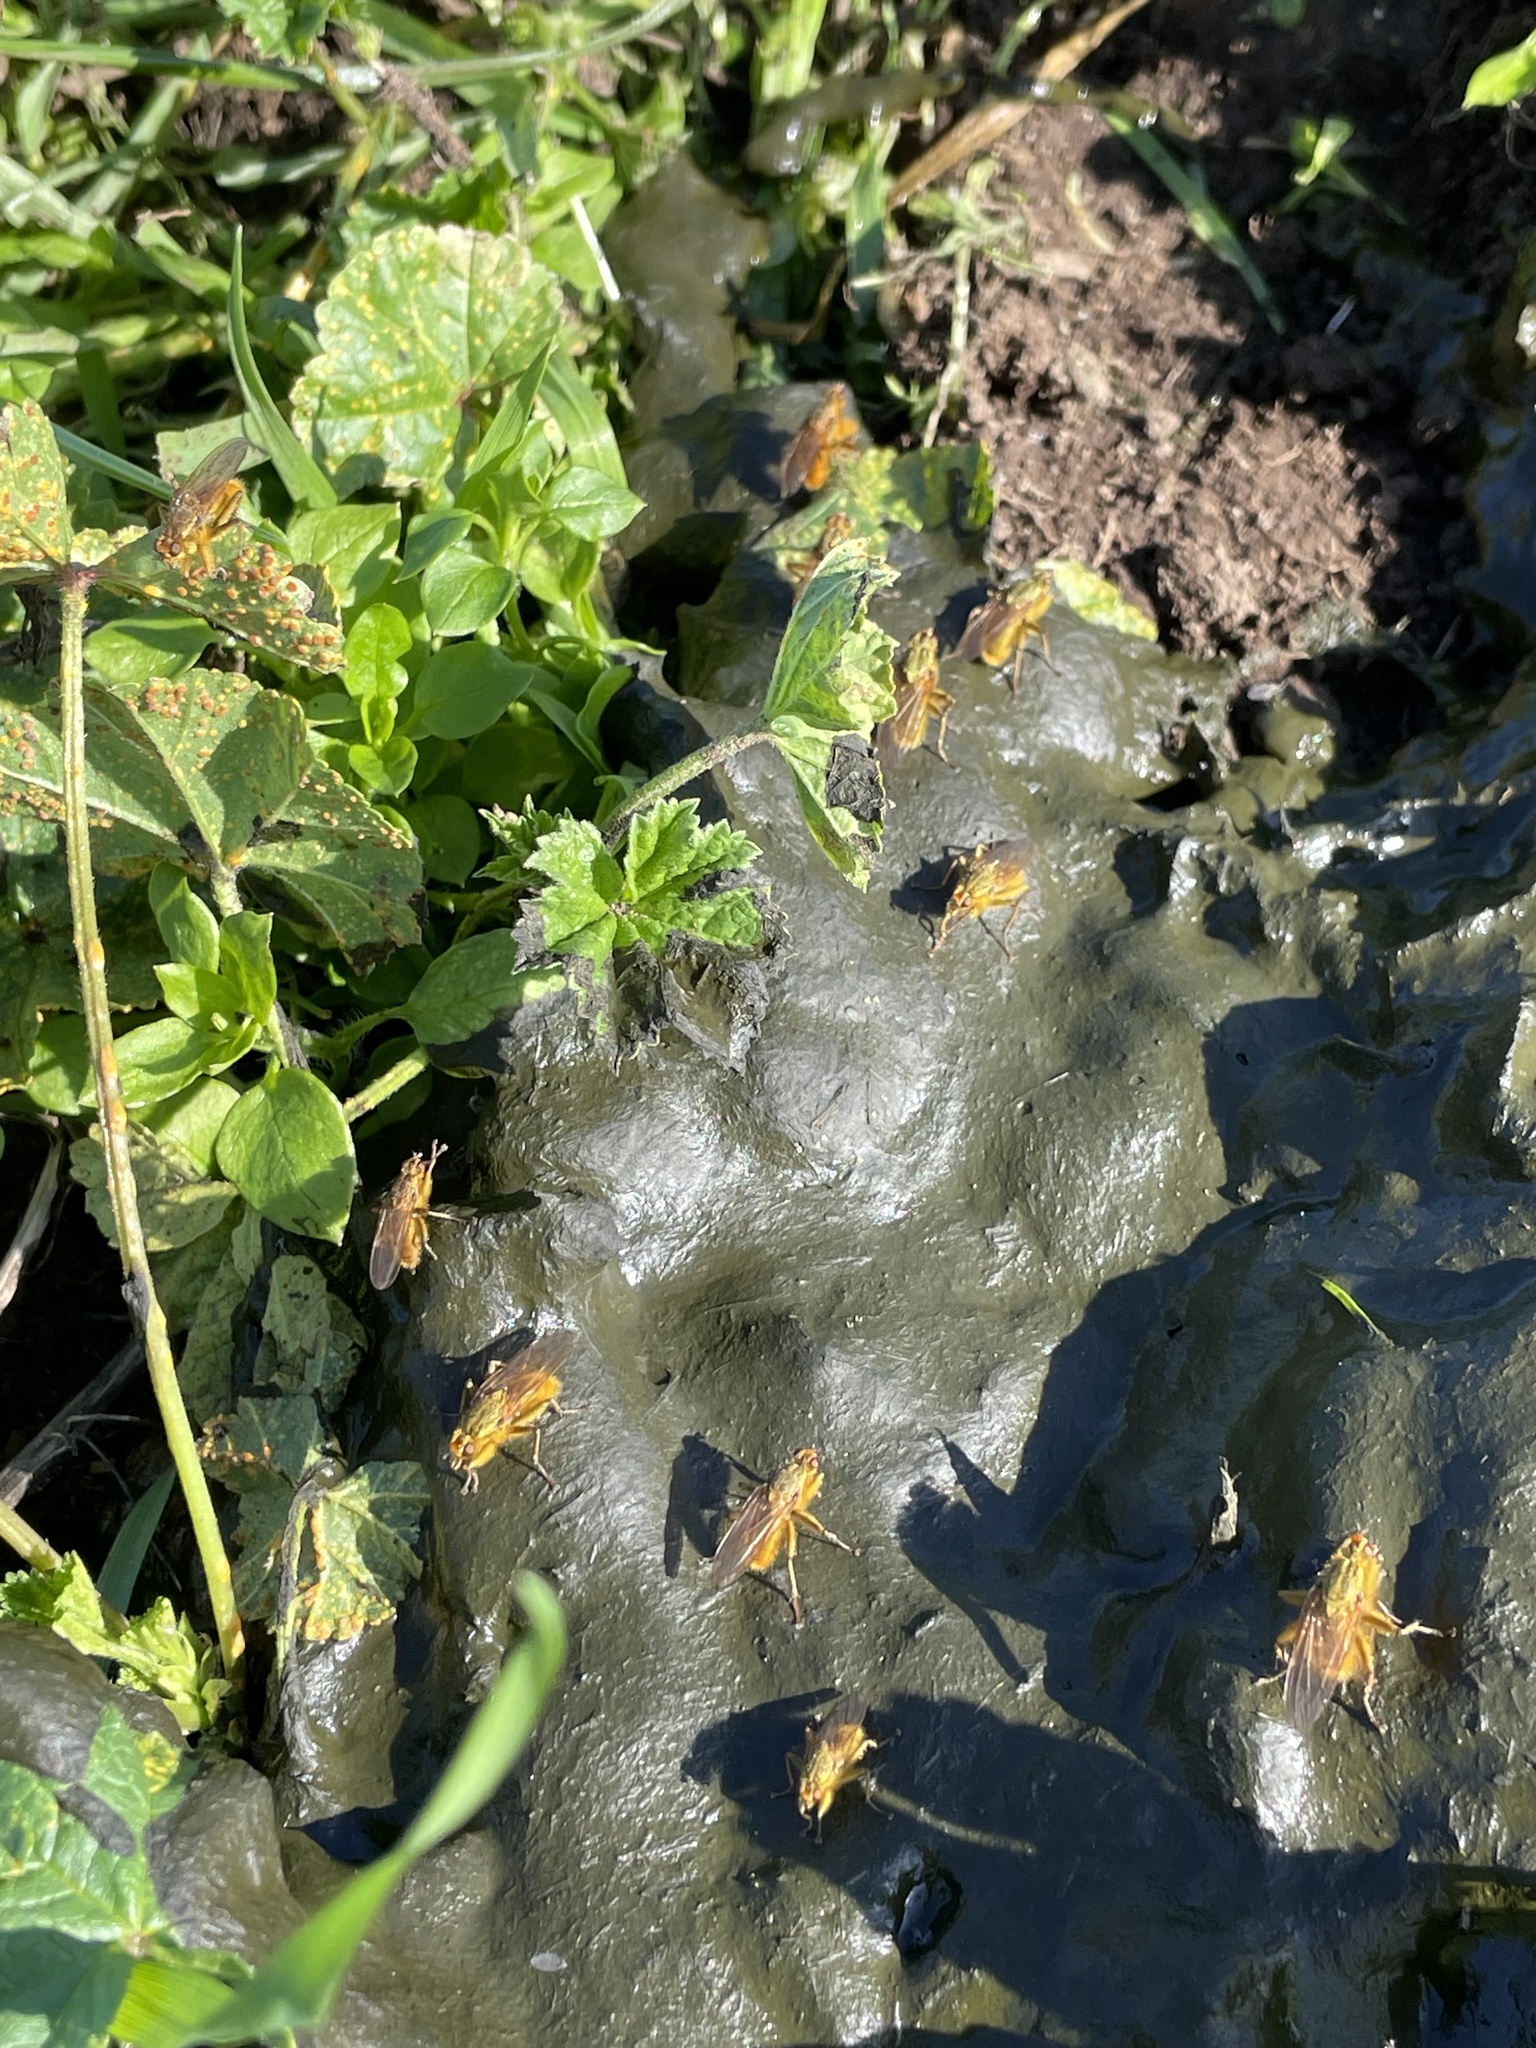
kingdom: Animalia
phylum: Arthropoda
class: Insecta
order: Diptera
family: Scathophagidae
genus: Scathophaga
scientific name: Scathophaga stercoraria
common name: Yellow dung fly
